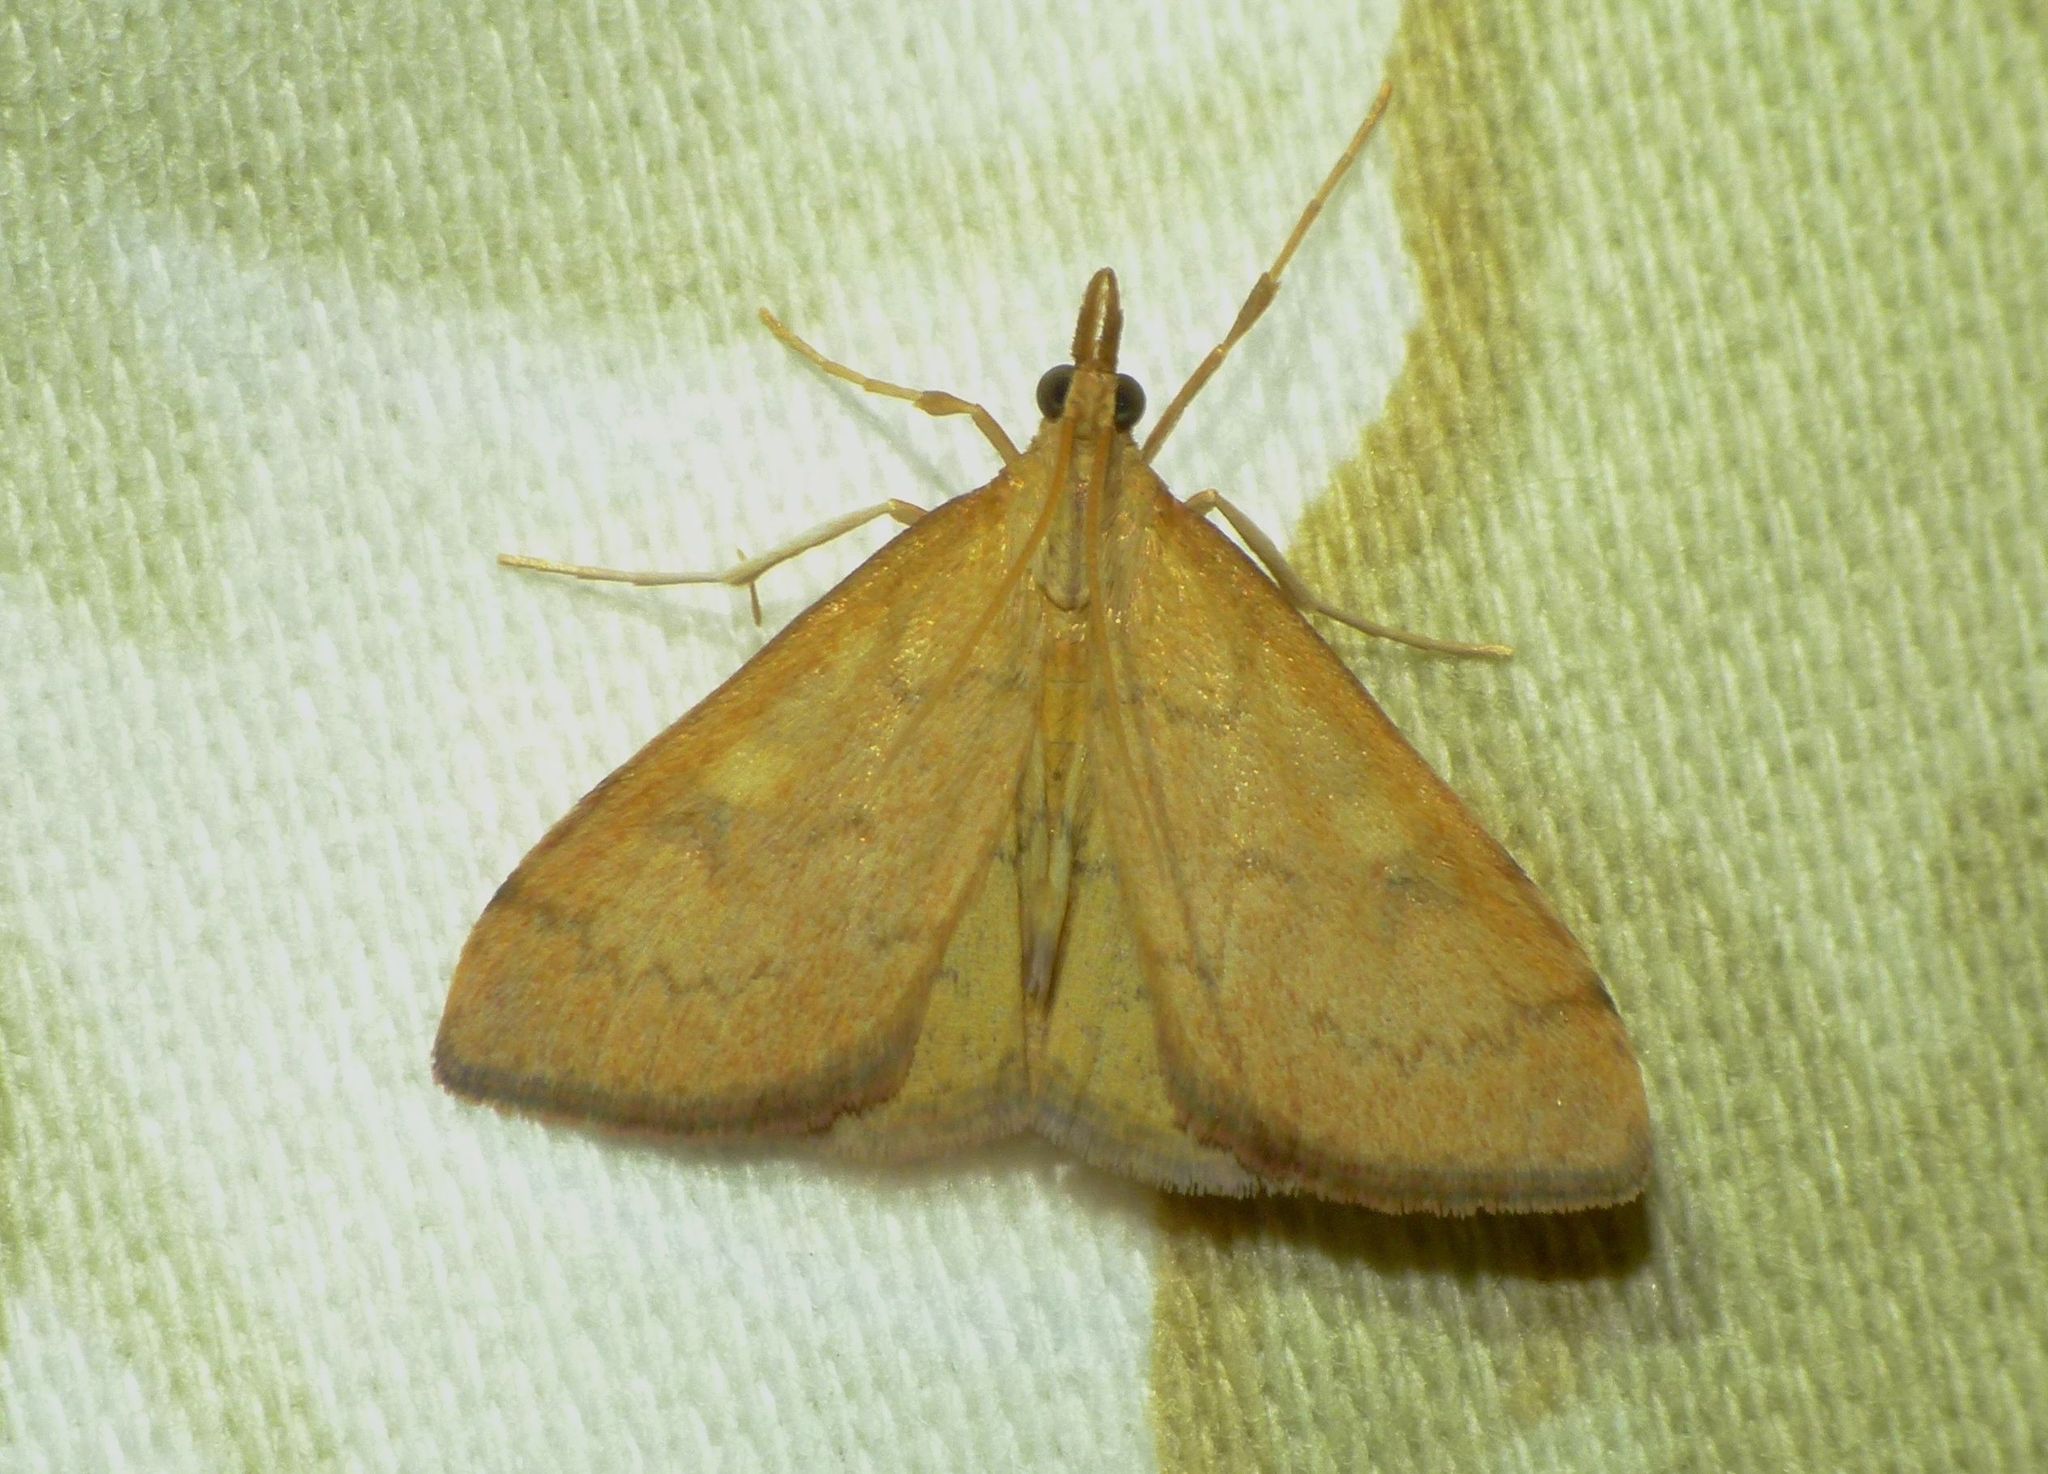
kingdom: Animalia
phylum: Arthropoda
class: Insecta
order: Lepidoptera
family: Crambidae
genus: Udea
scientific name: Udea Mnesictena flavidalis
